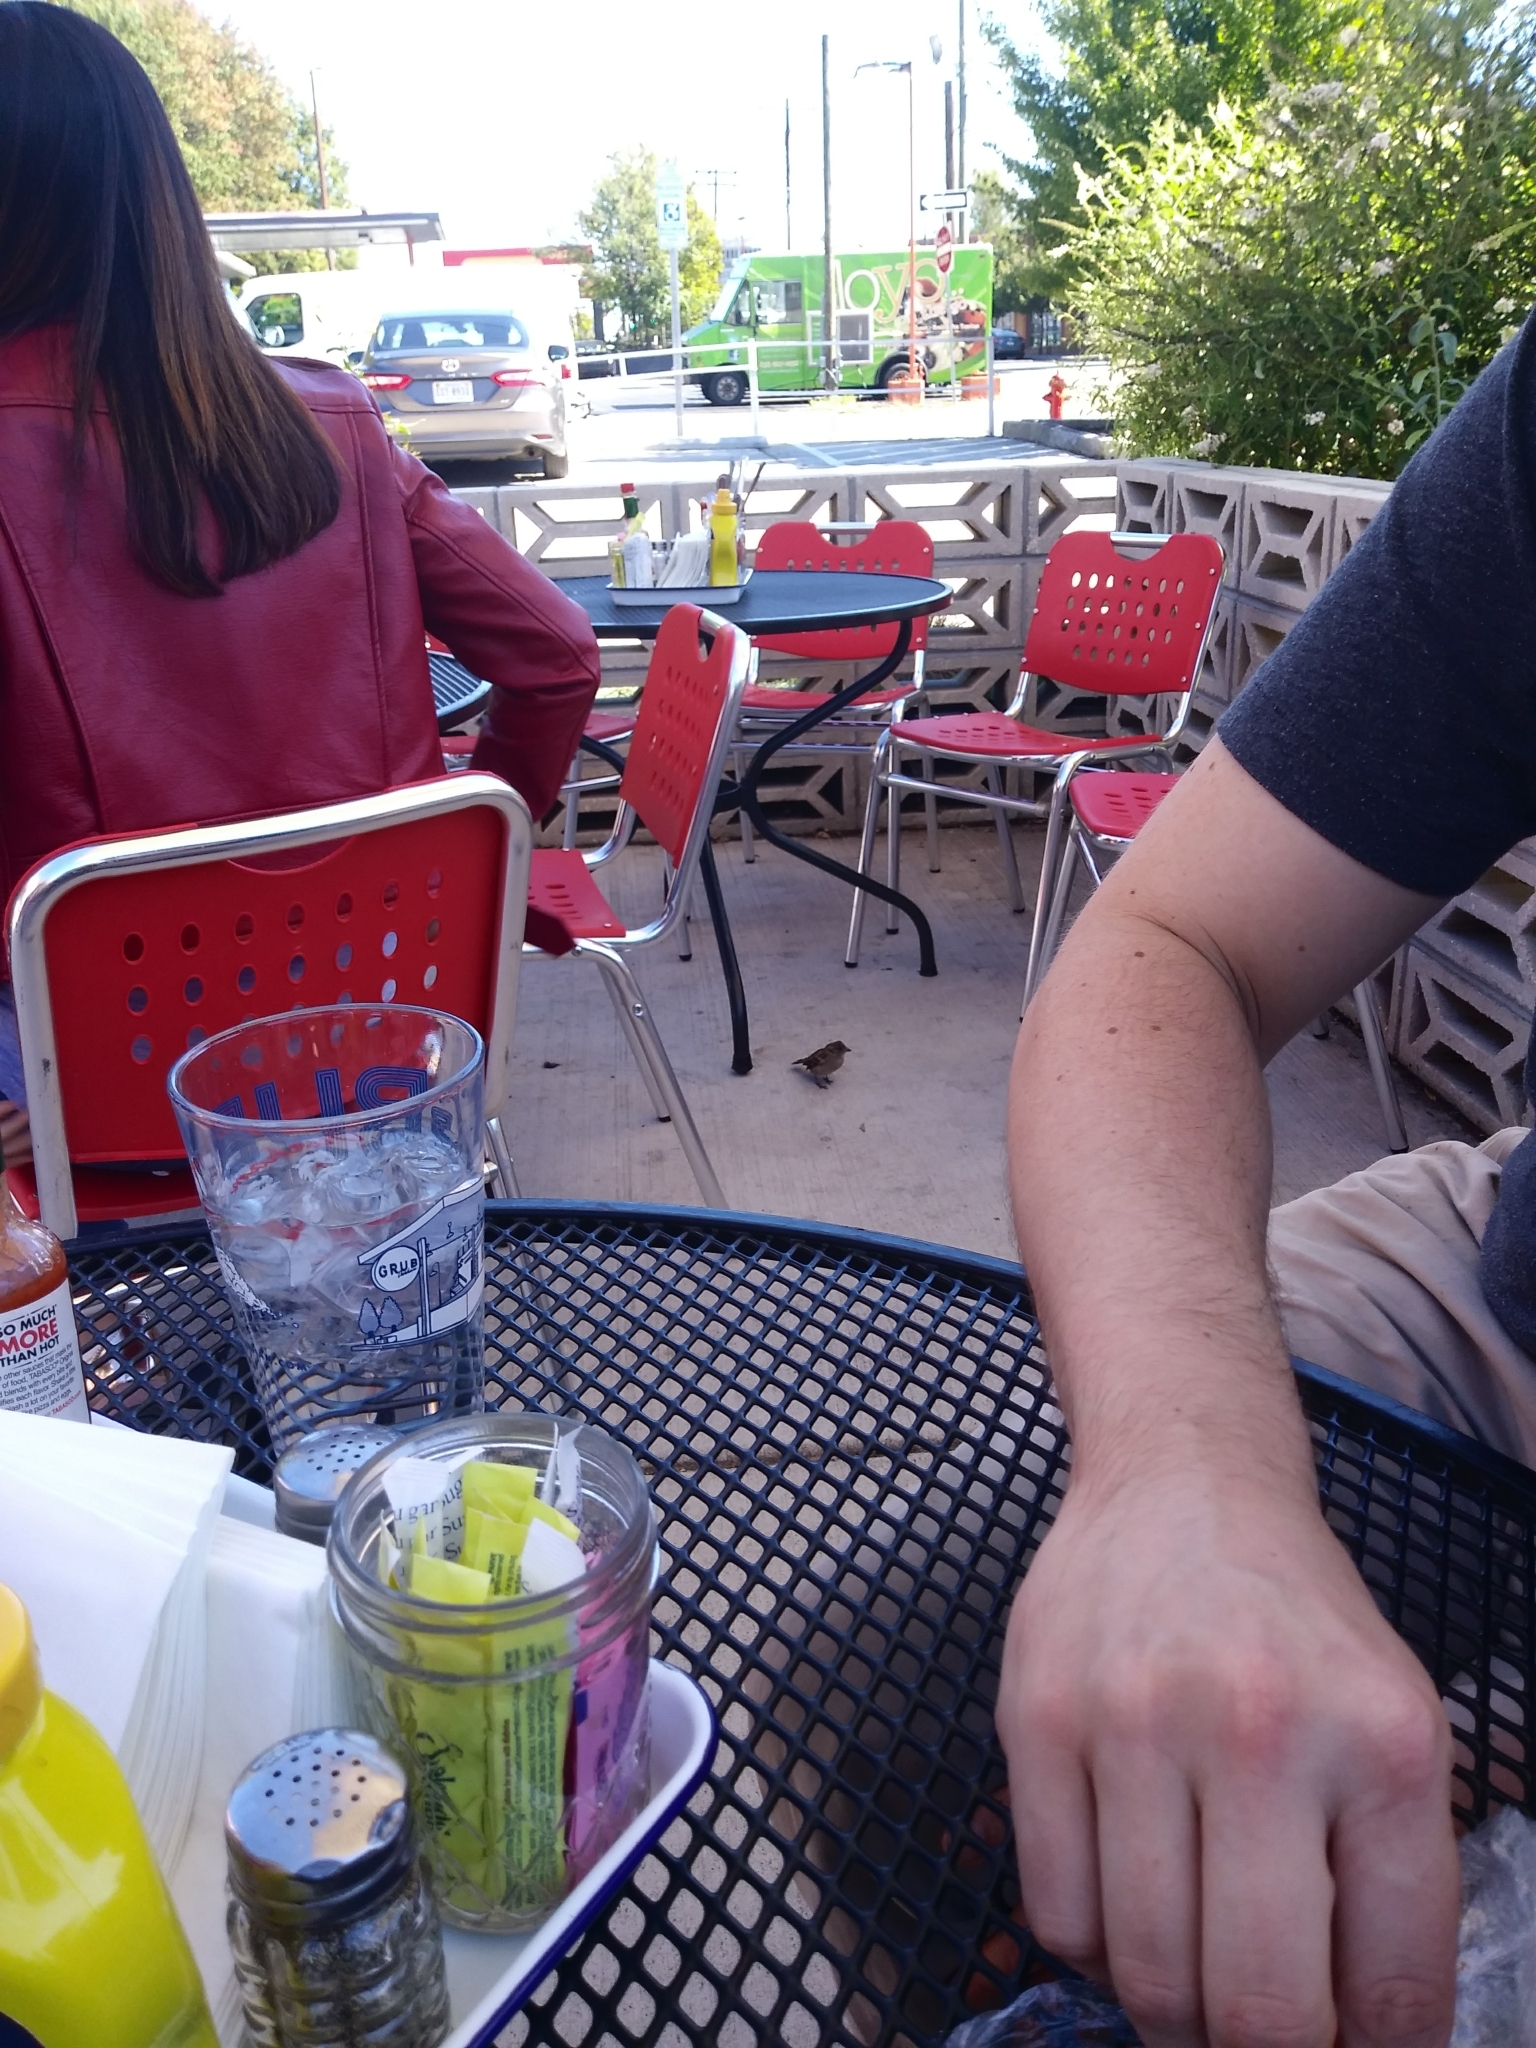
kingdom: Animalia
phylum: Chordata
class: Aves
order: Passeriformes
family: Passeridae
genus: Passer
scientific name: Passer domesticus
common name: House sparrow
